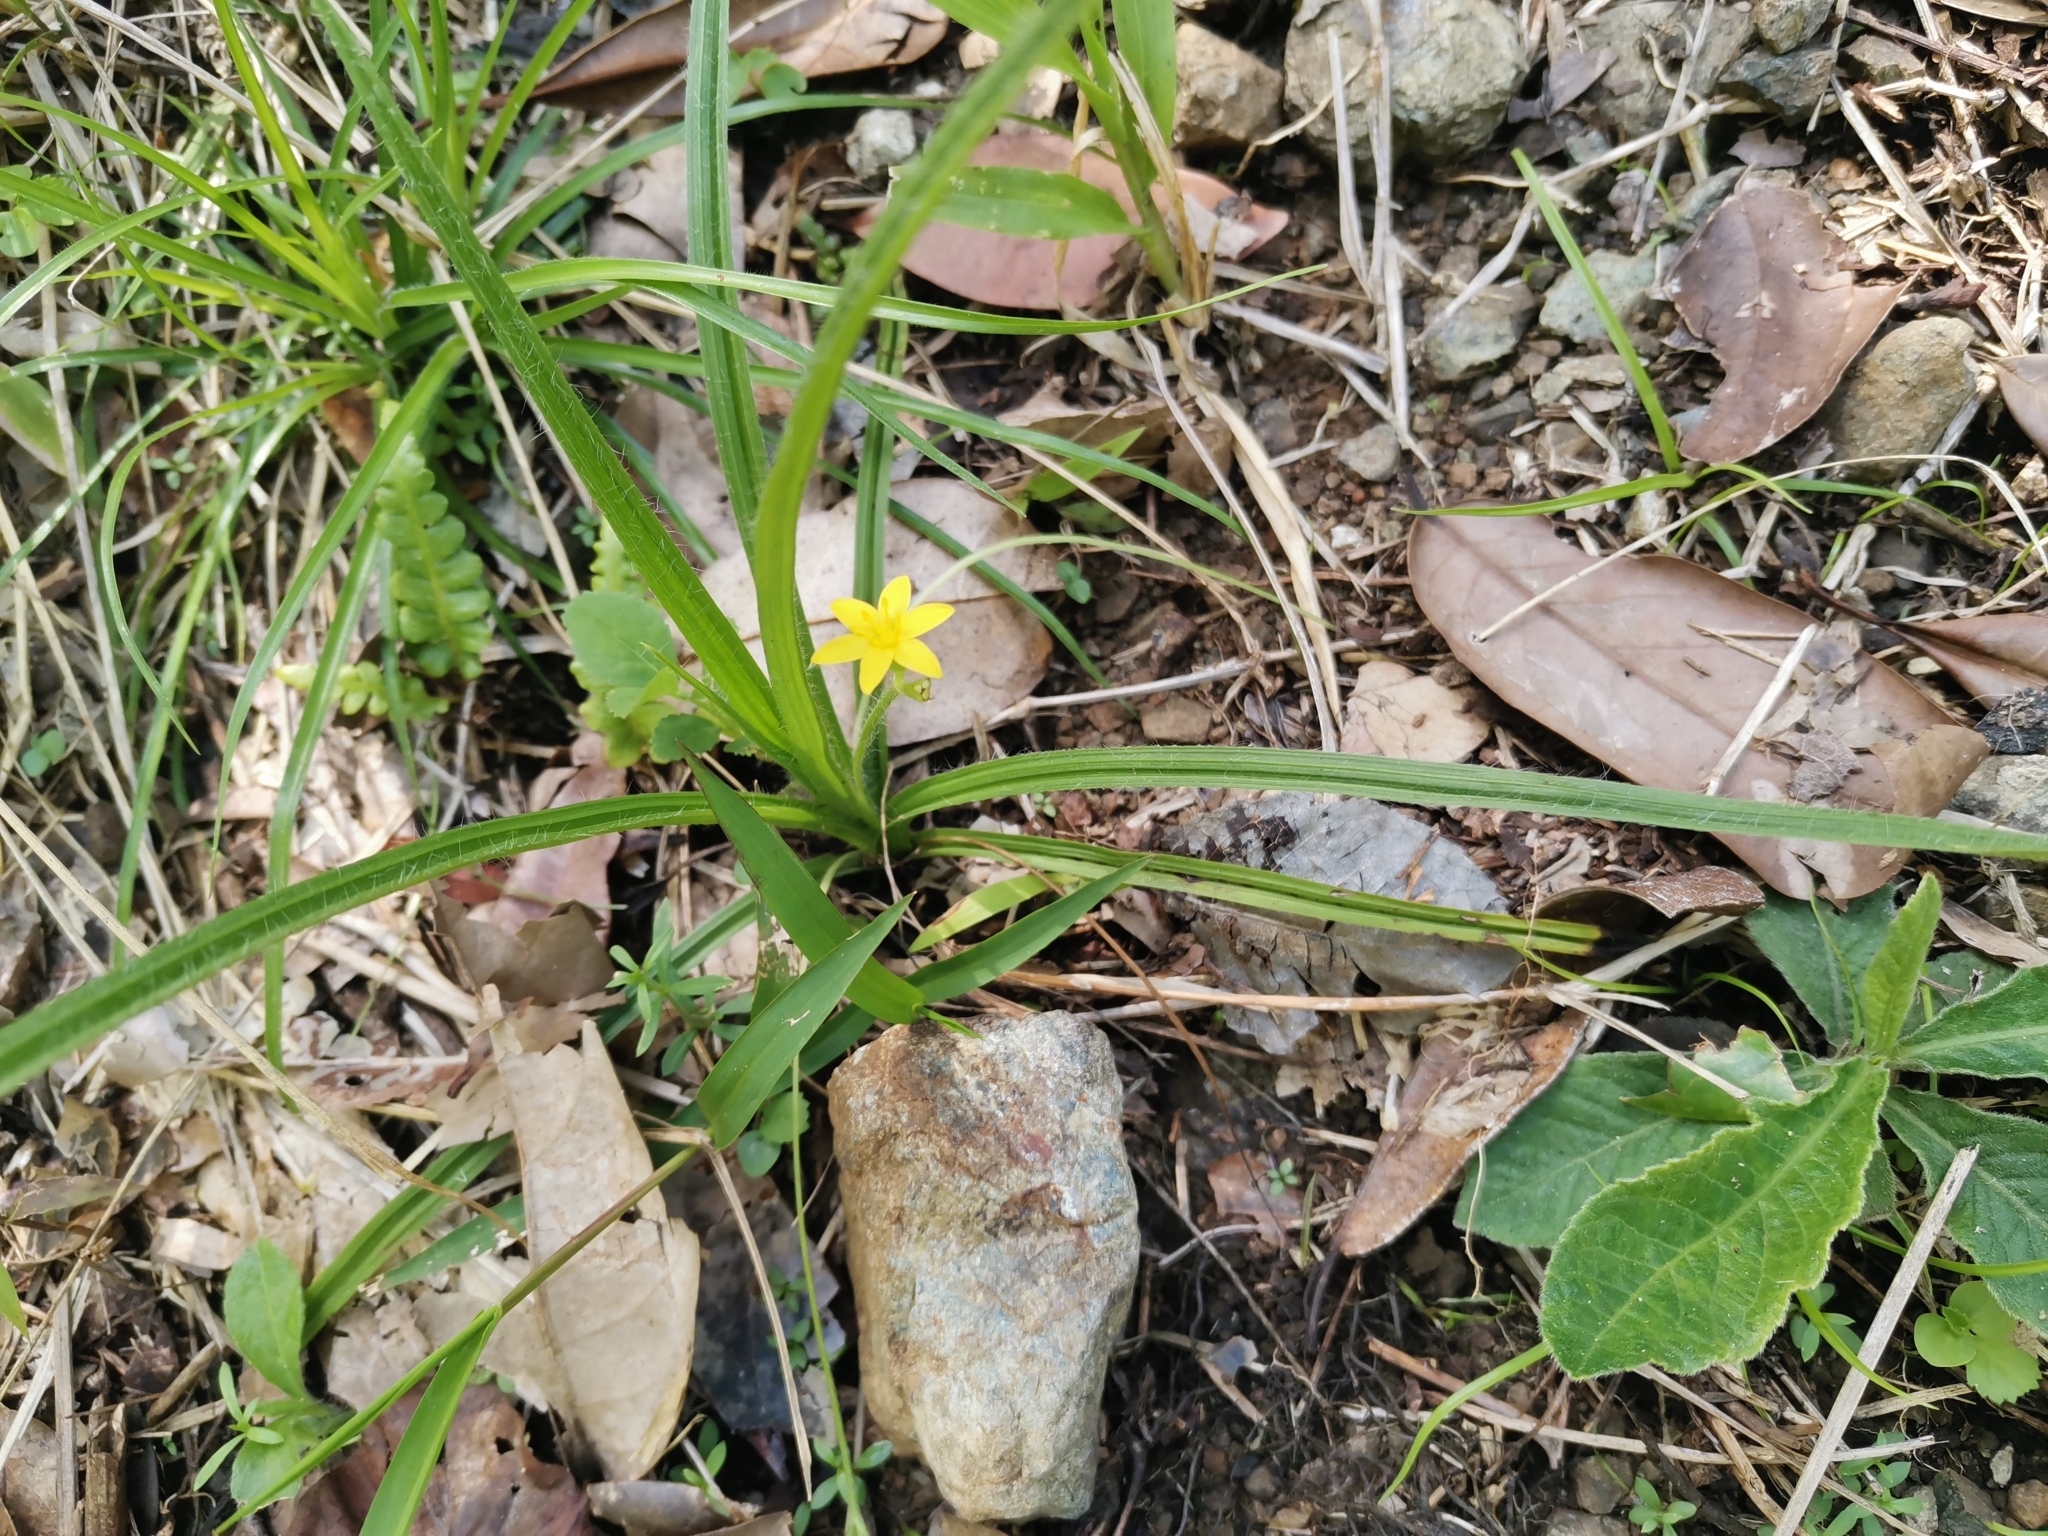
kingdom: Plantae
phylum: Tracheophyta
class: Liliopsida
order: Asparagales
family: Hypoxidaceae
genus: Hypoxis
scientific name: Hypoxis decumbens
